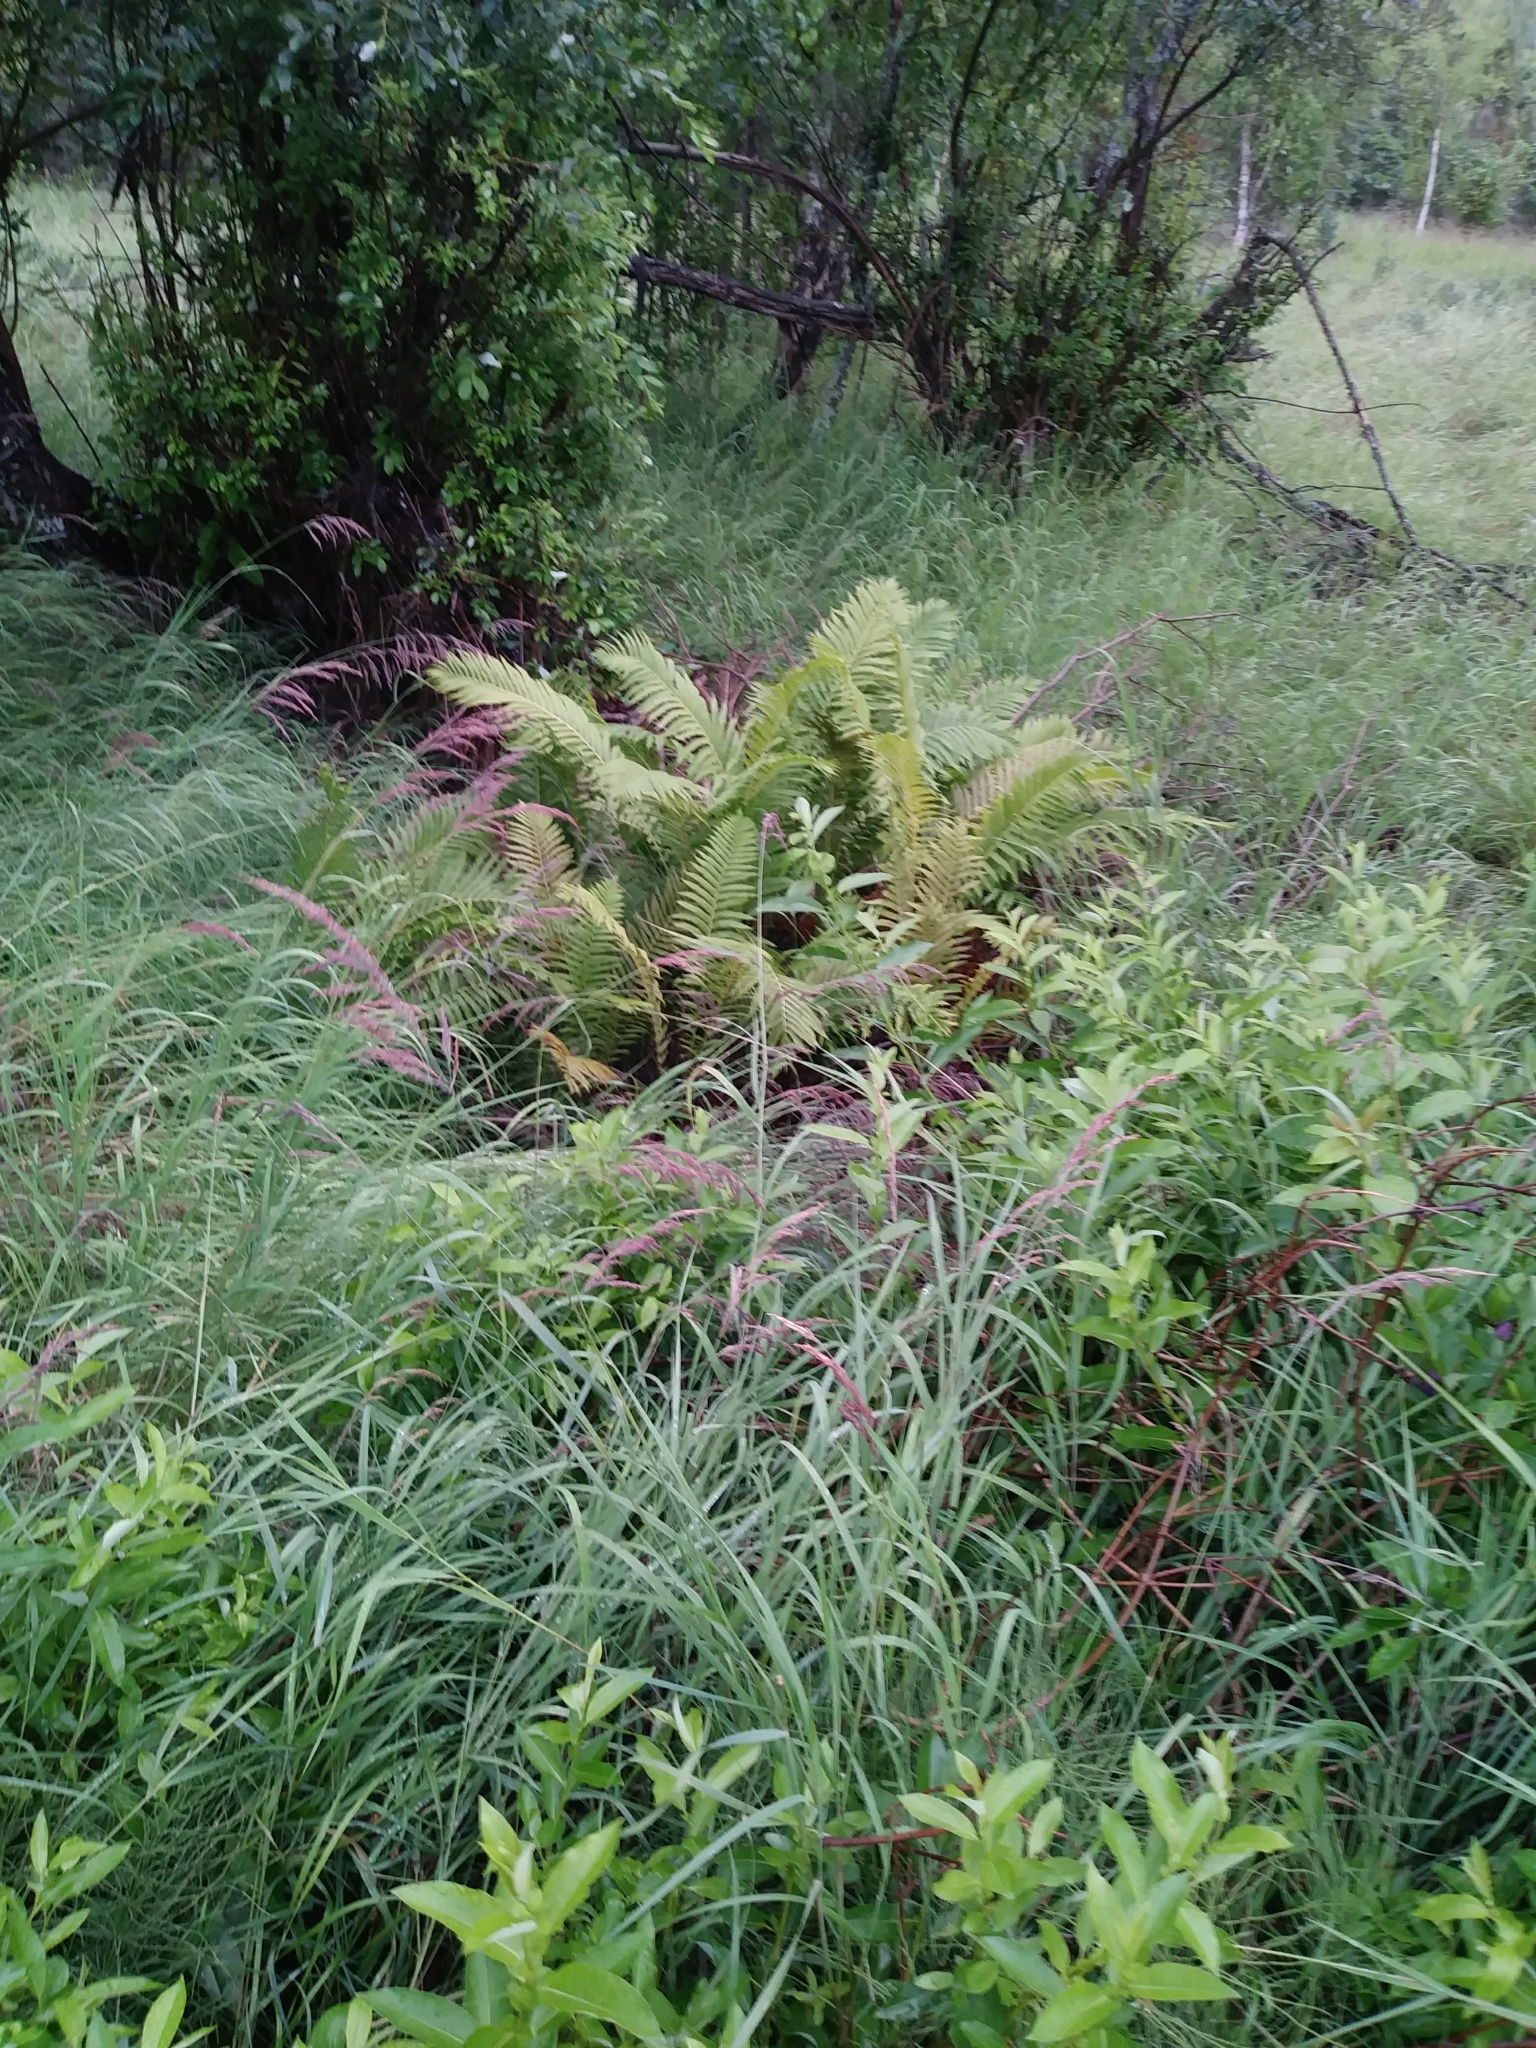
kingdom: Plantae
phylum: Tracheophyta
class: Polypodiopsida
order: Polypodiales
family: Onocleaceae
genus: Matteuccia
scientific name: Matteuccia struthiopteris
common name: Ostrich fern
